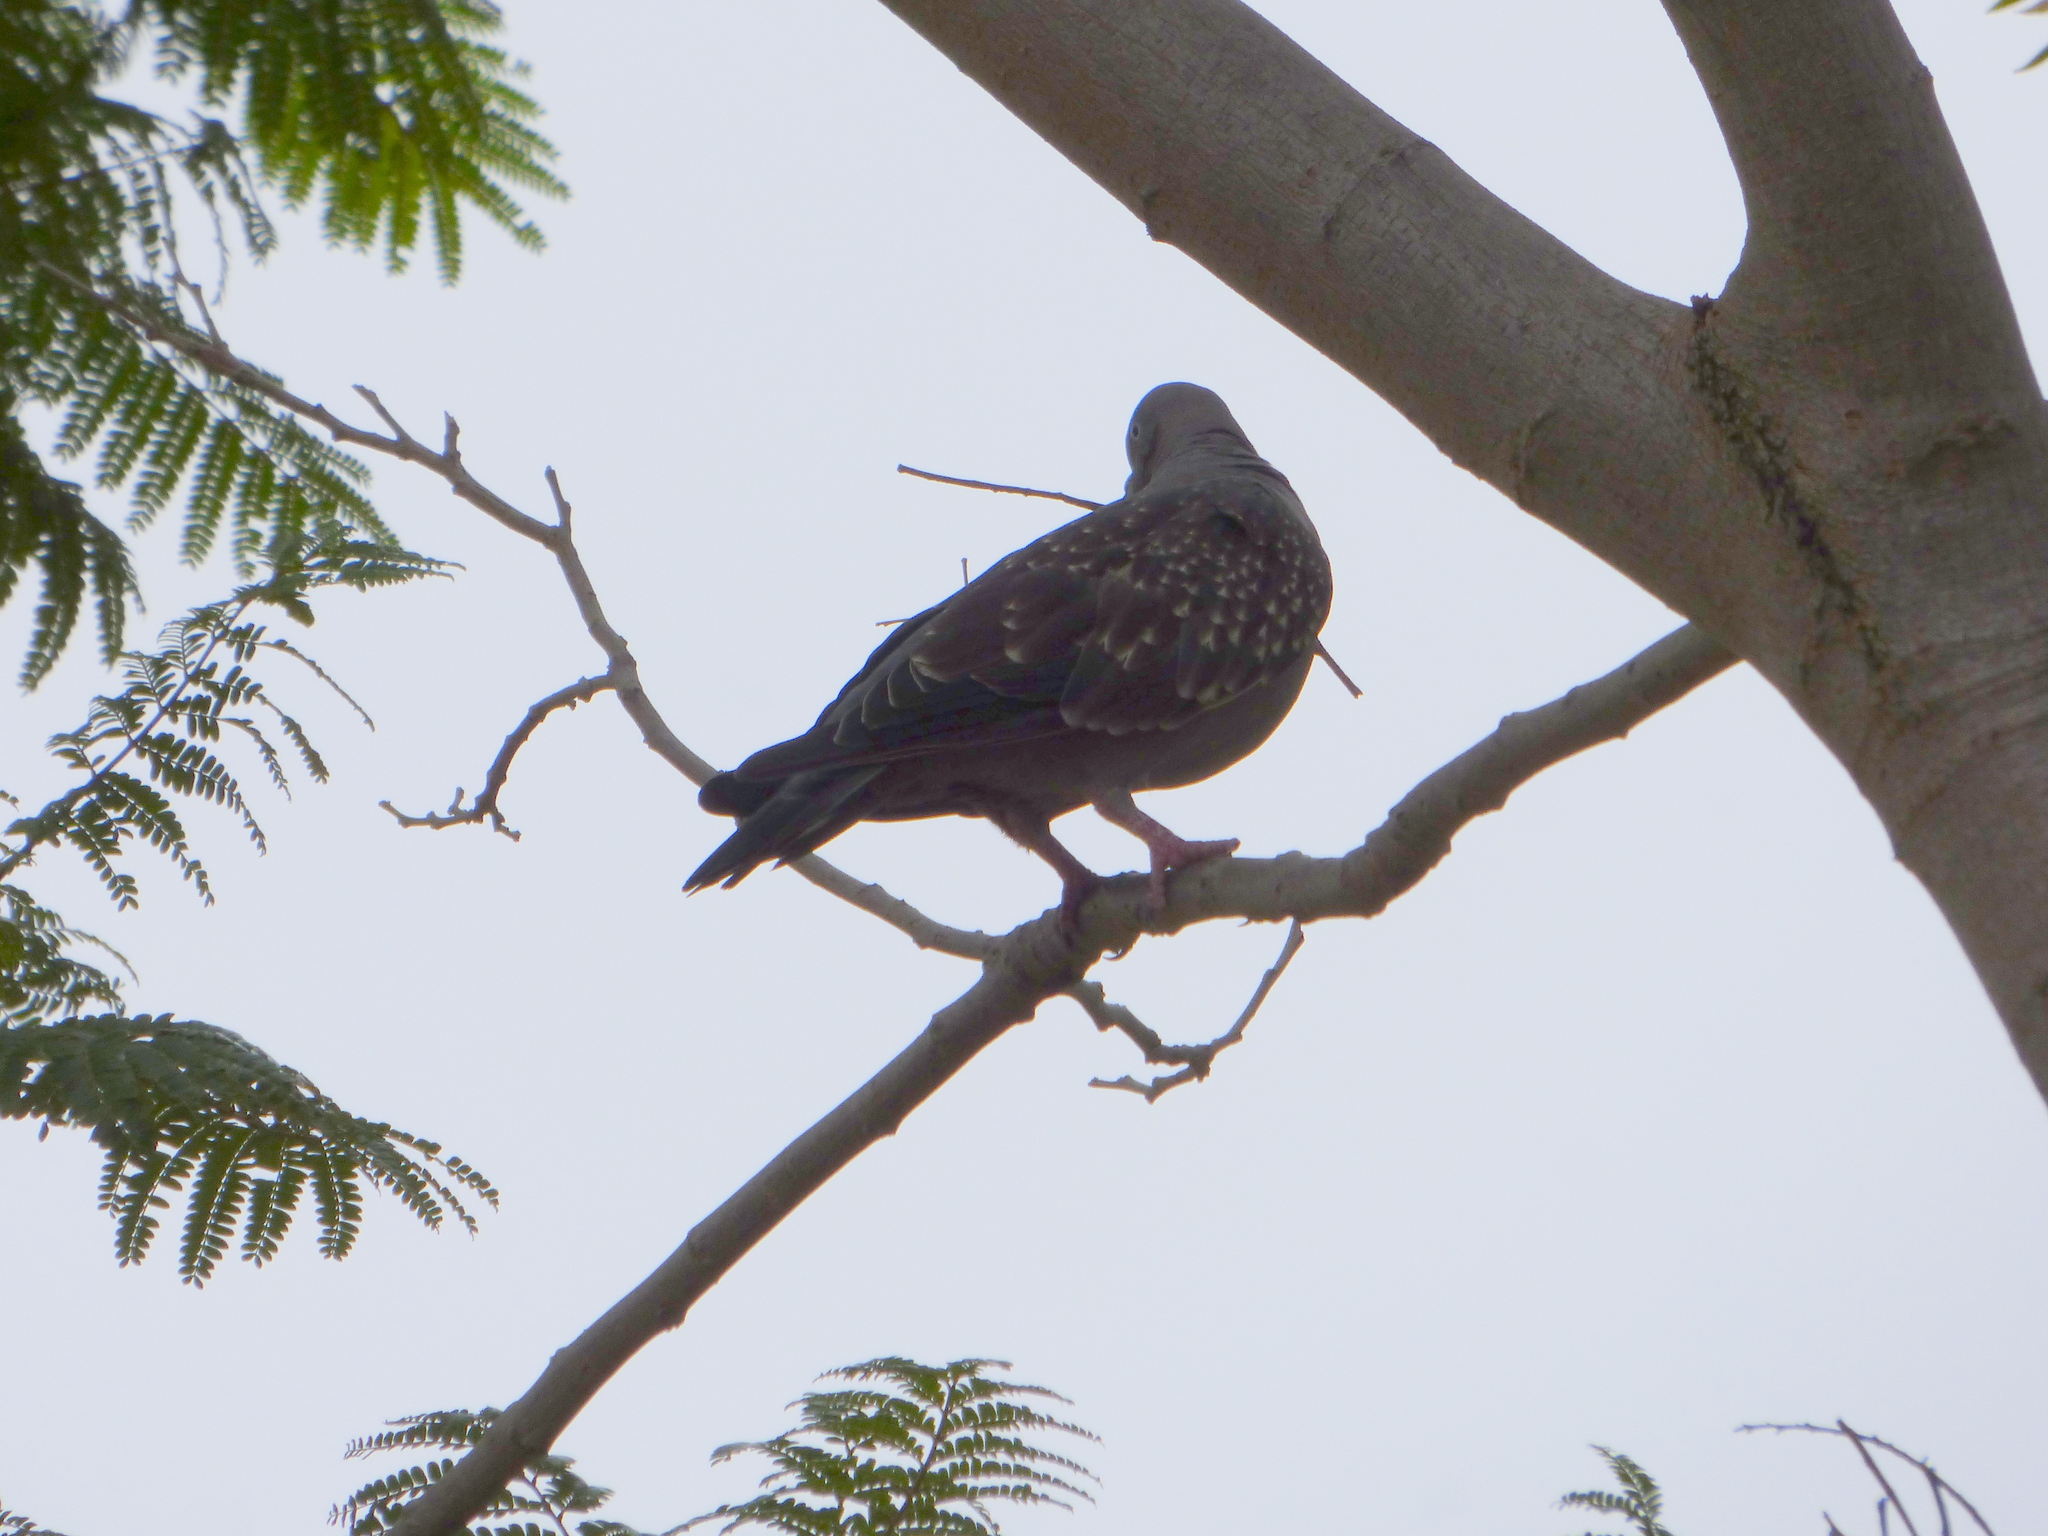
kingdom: Animalia
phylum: Chordata
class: Aves
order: Columbiformes
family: Columbidae
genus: Patagioenas
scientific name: Patagioenas maculosa
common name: Spot-winged pigeon
